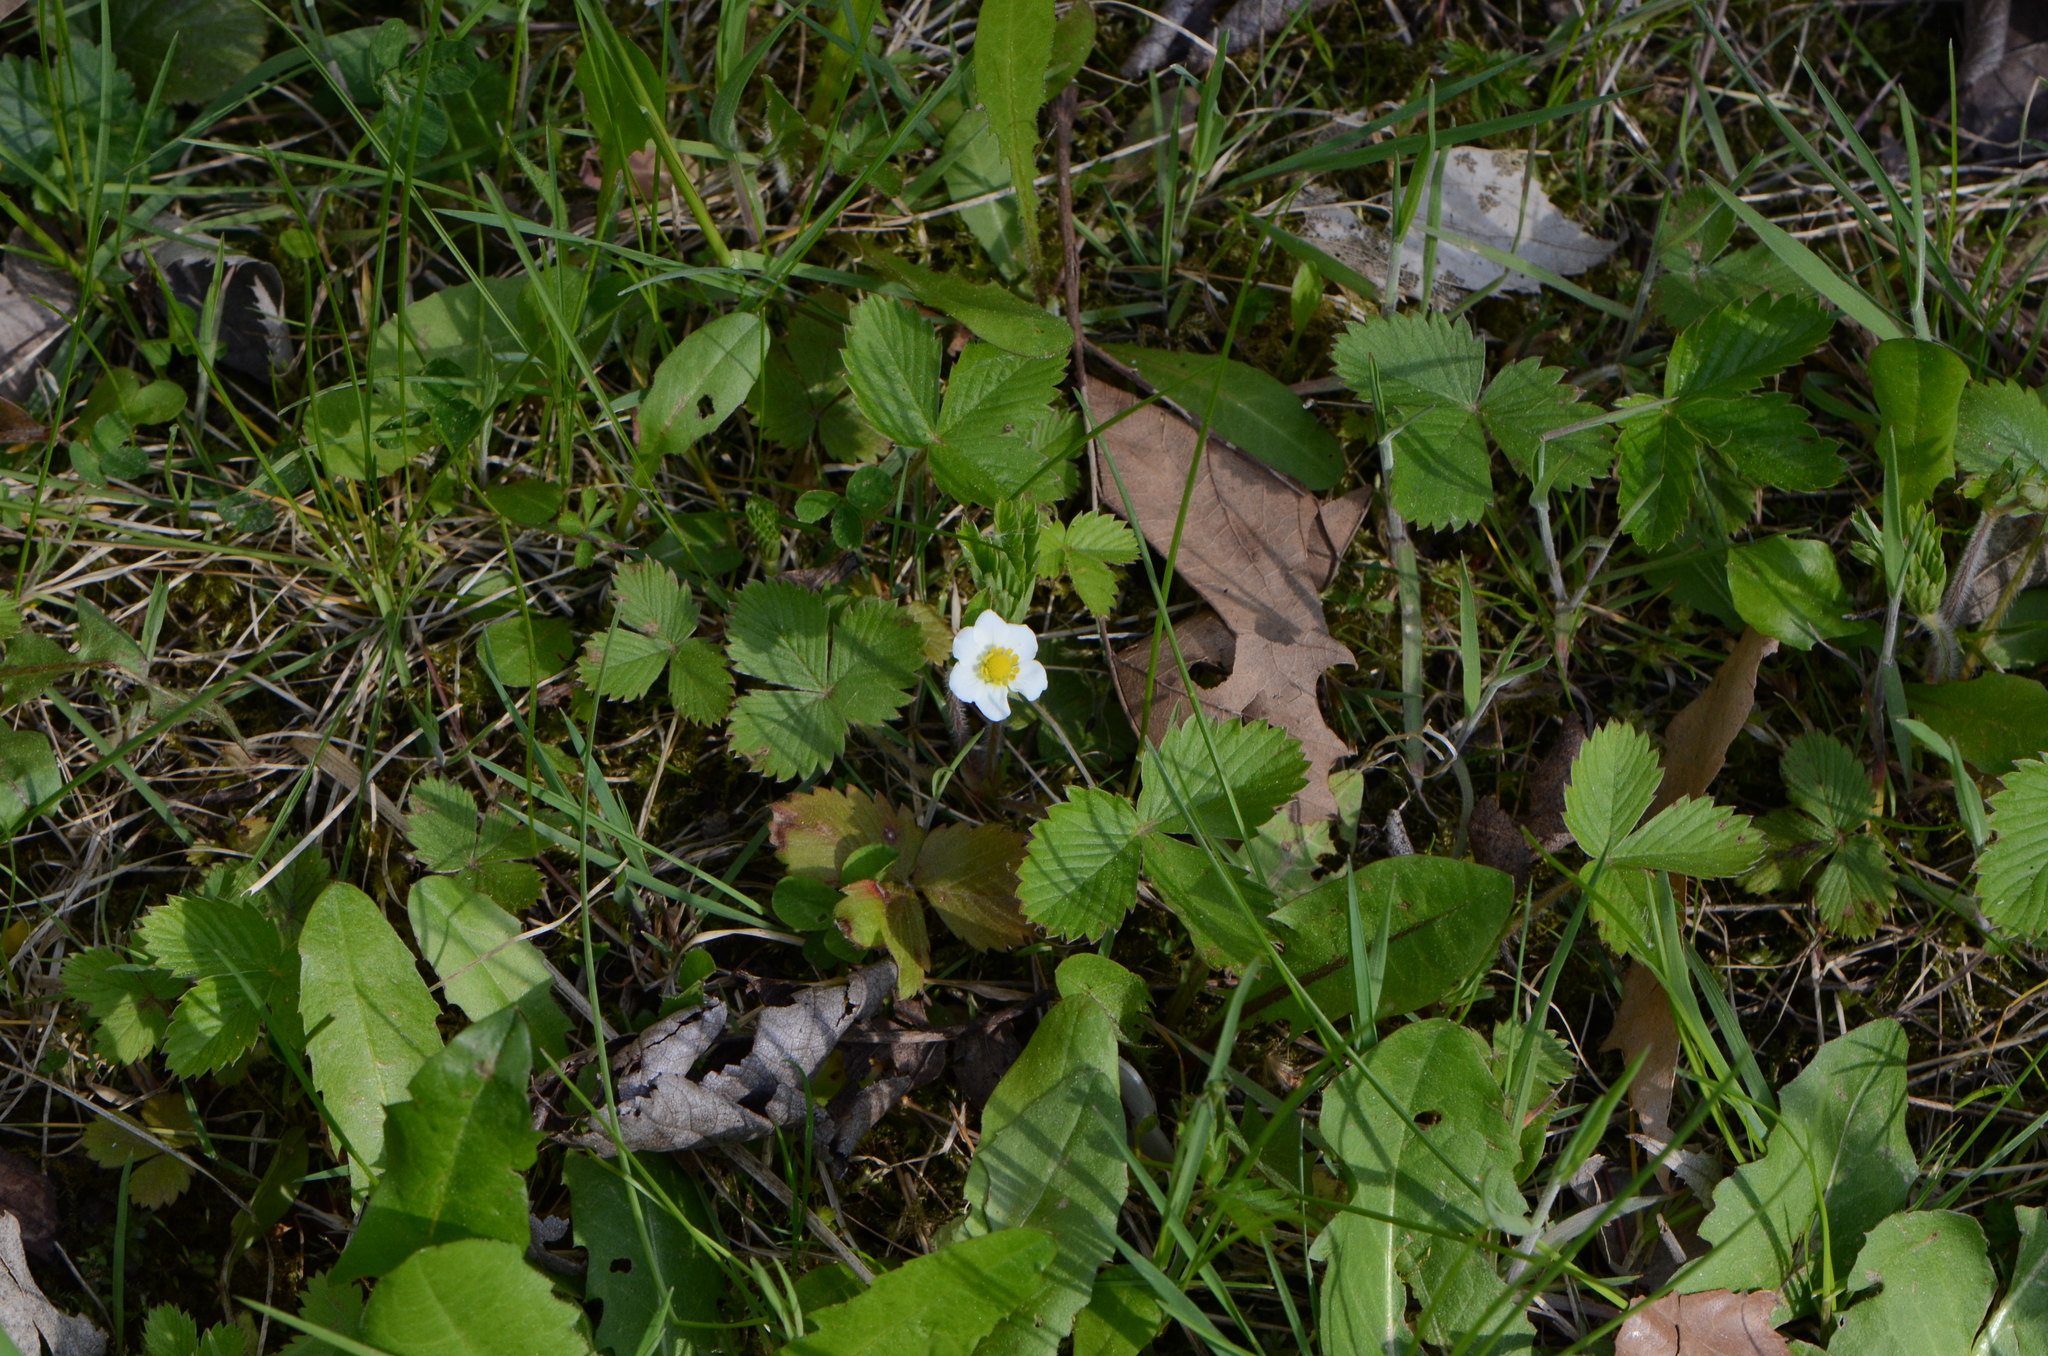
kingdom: Plantae
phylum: Tracheophyta
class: Magnoliopsida
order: Rosales
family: Rosaceae
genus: Fragaria
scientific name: Fragaria vesca
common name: Wild strawberry
